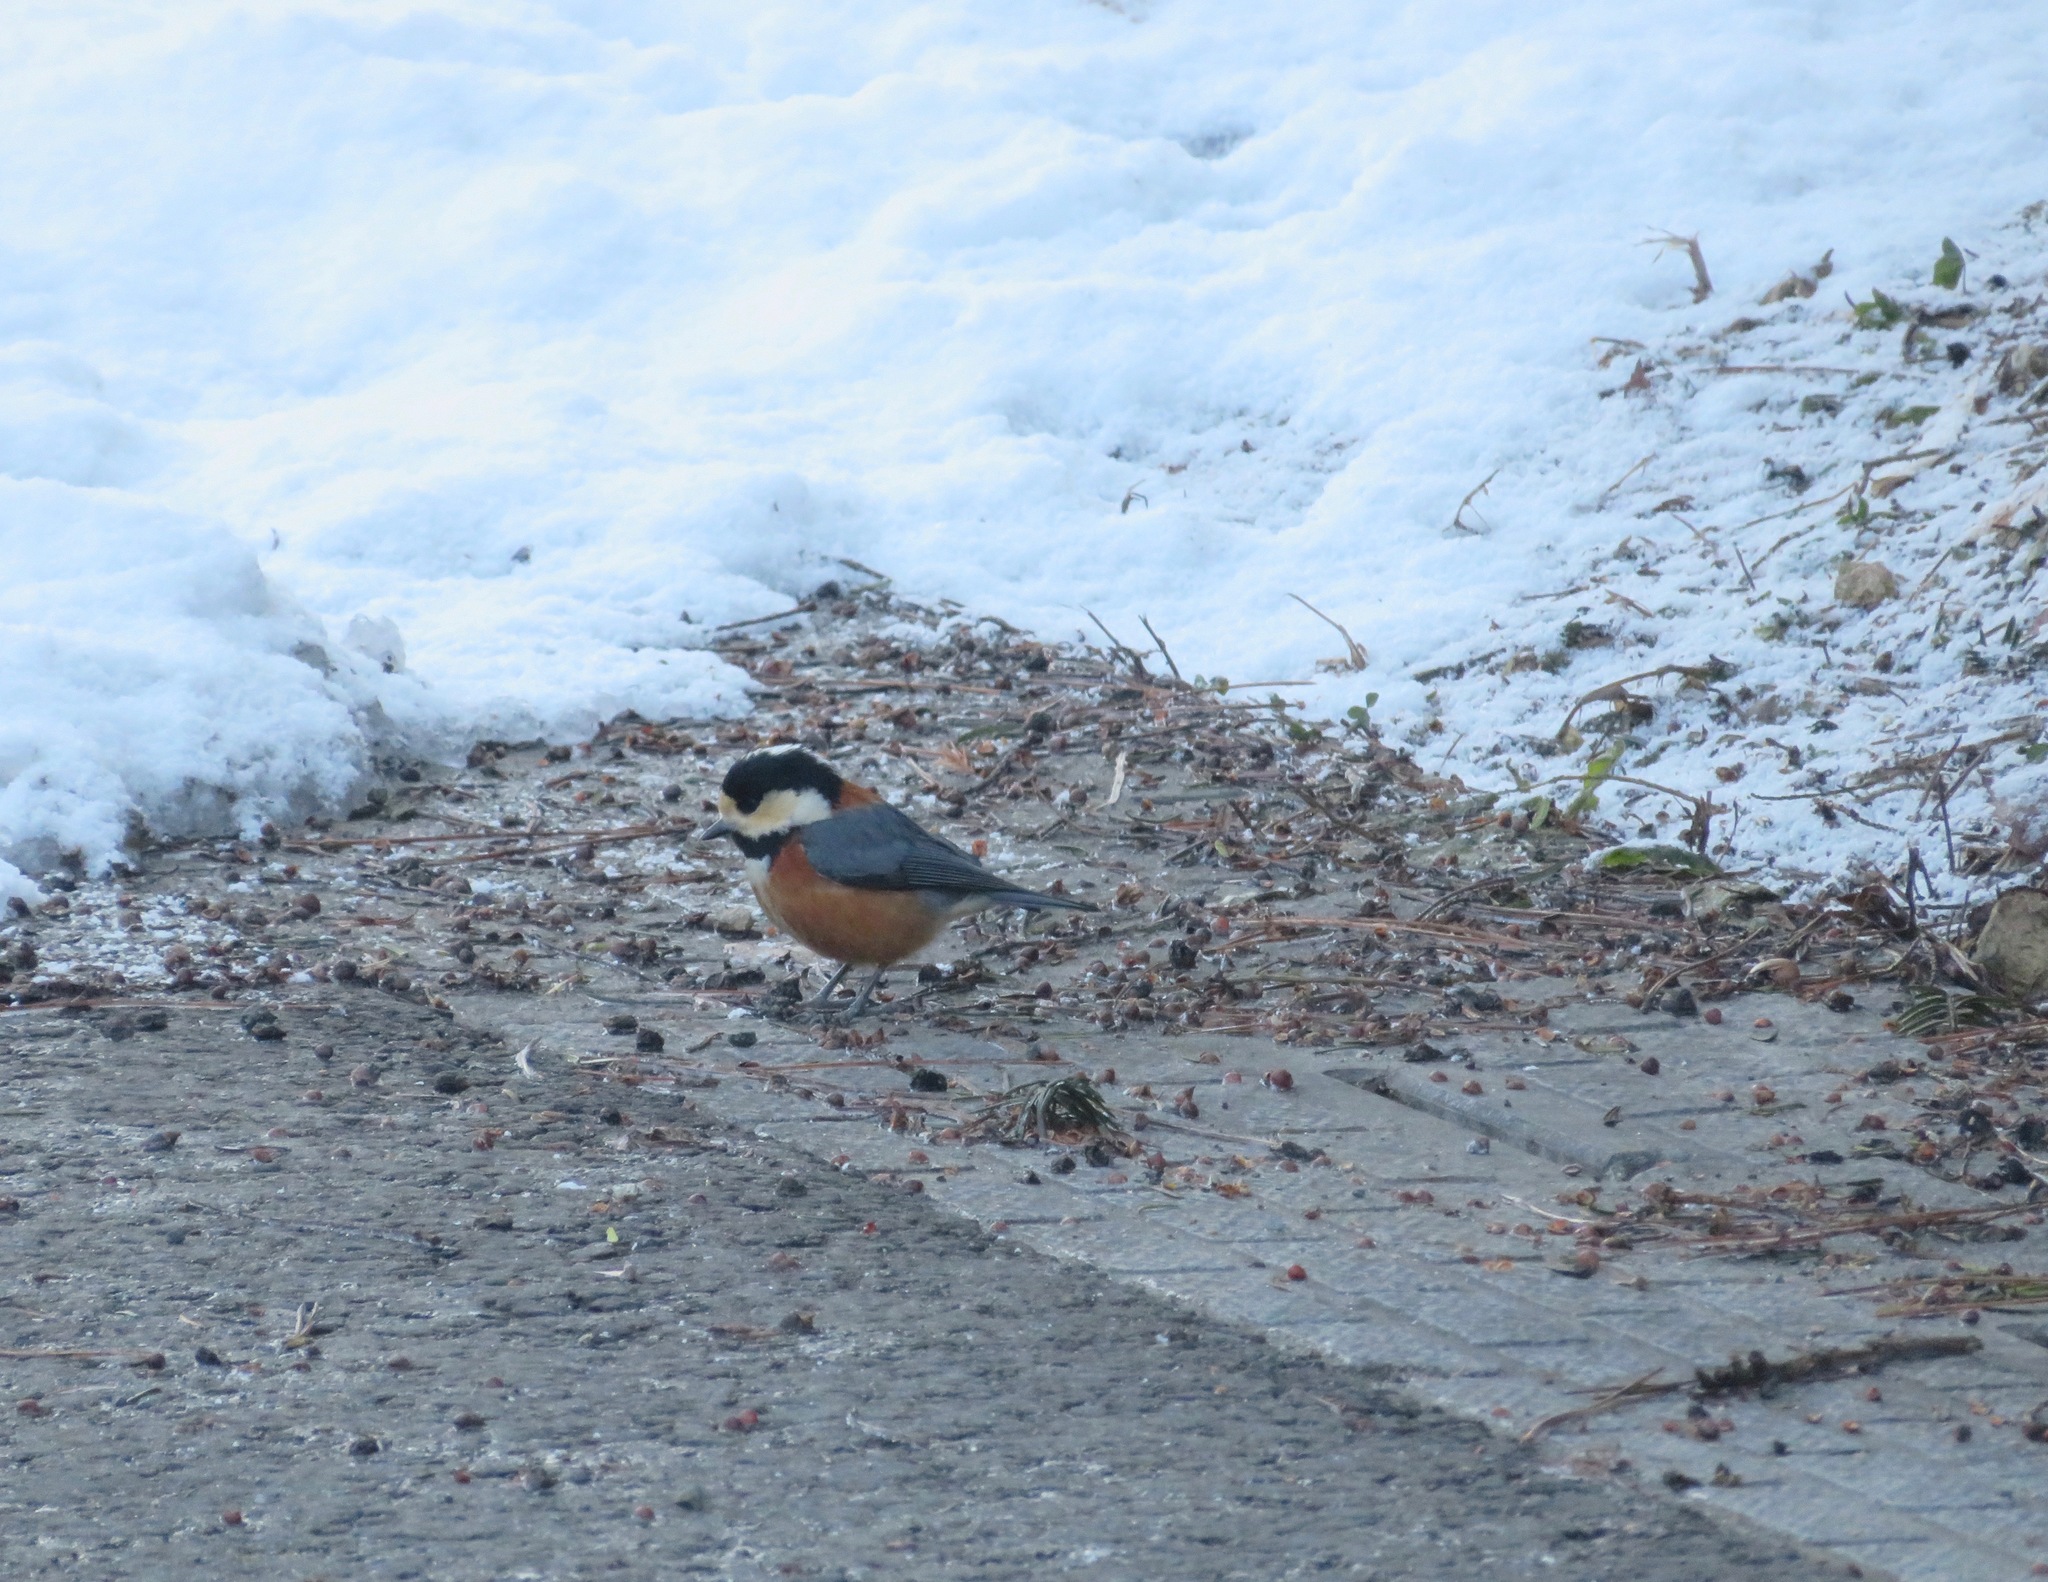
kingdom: Animalia
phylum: Chordata
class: Aves
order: Passeriformes
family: Paridae
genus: Poecile
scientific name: Poecile varius
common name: Varied tit
